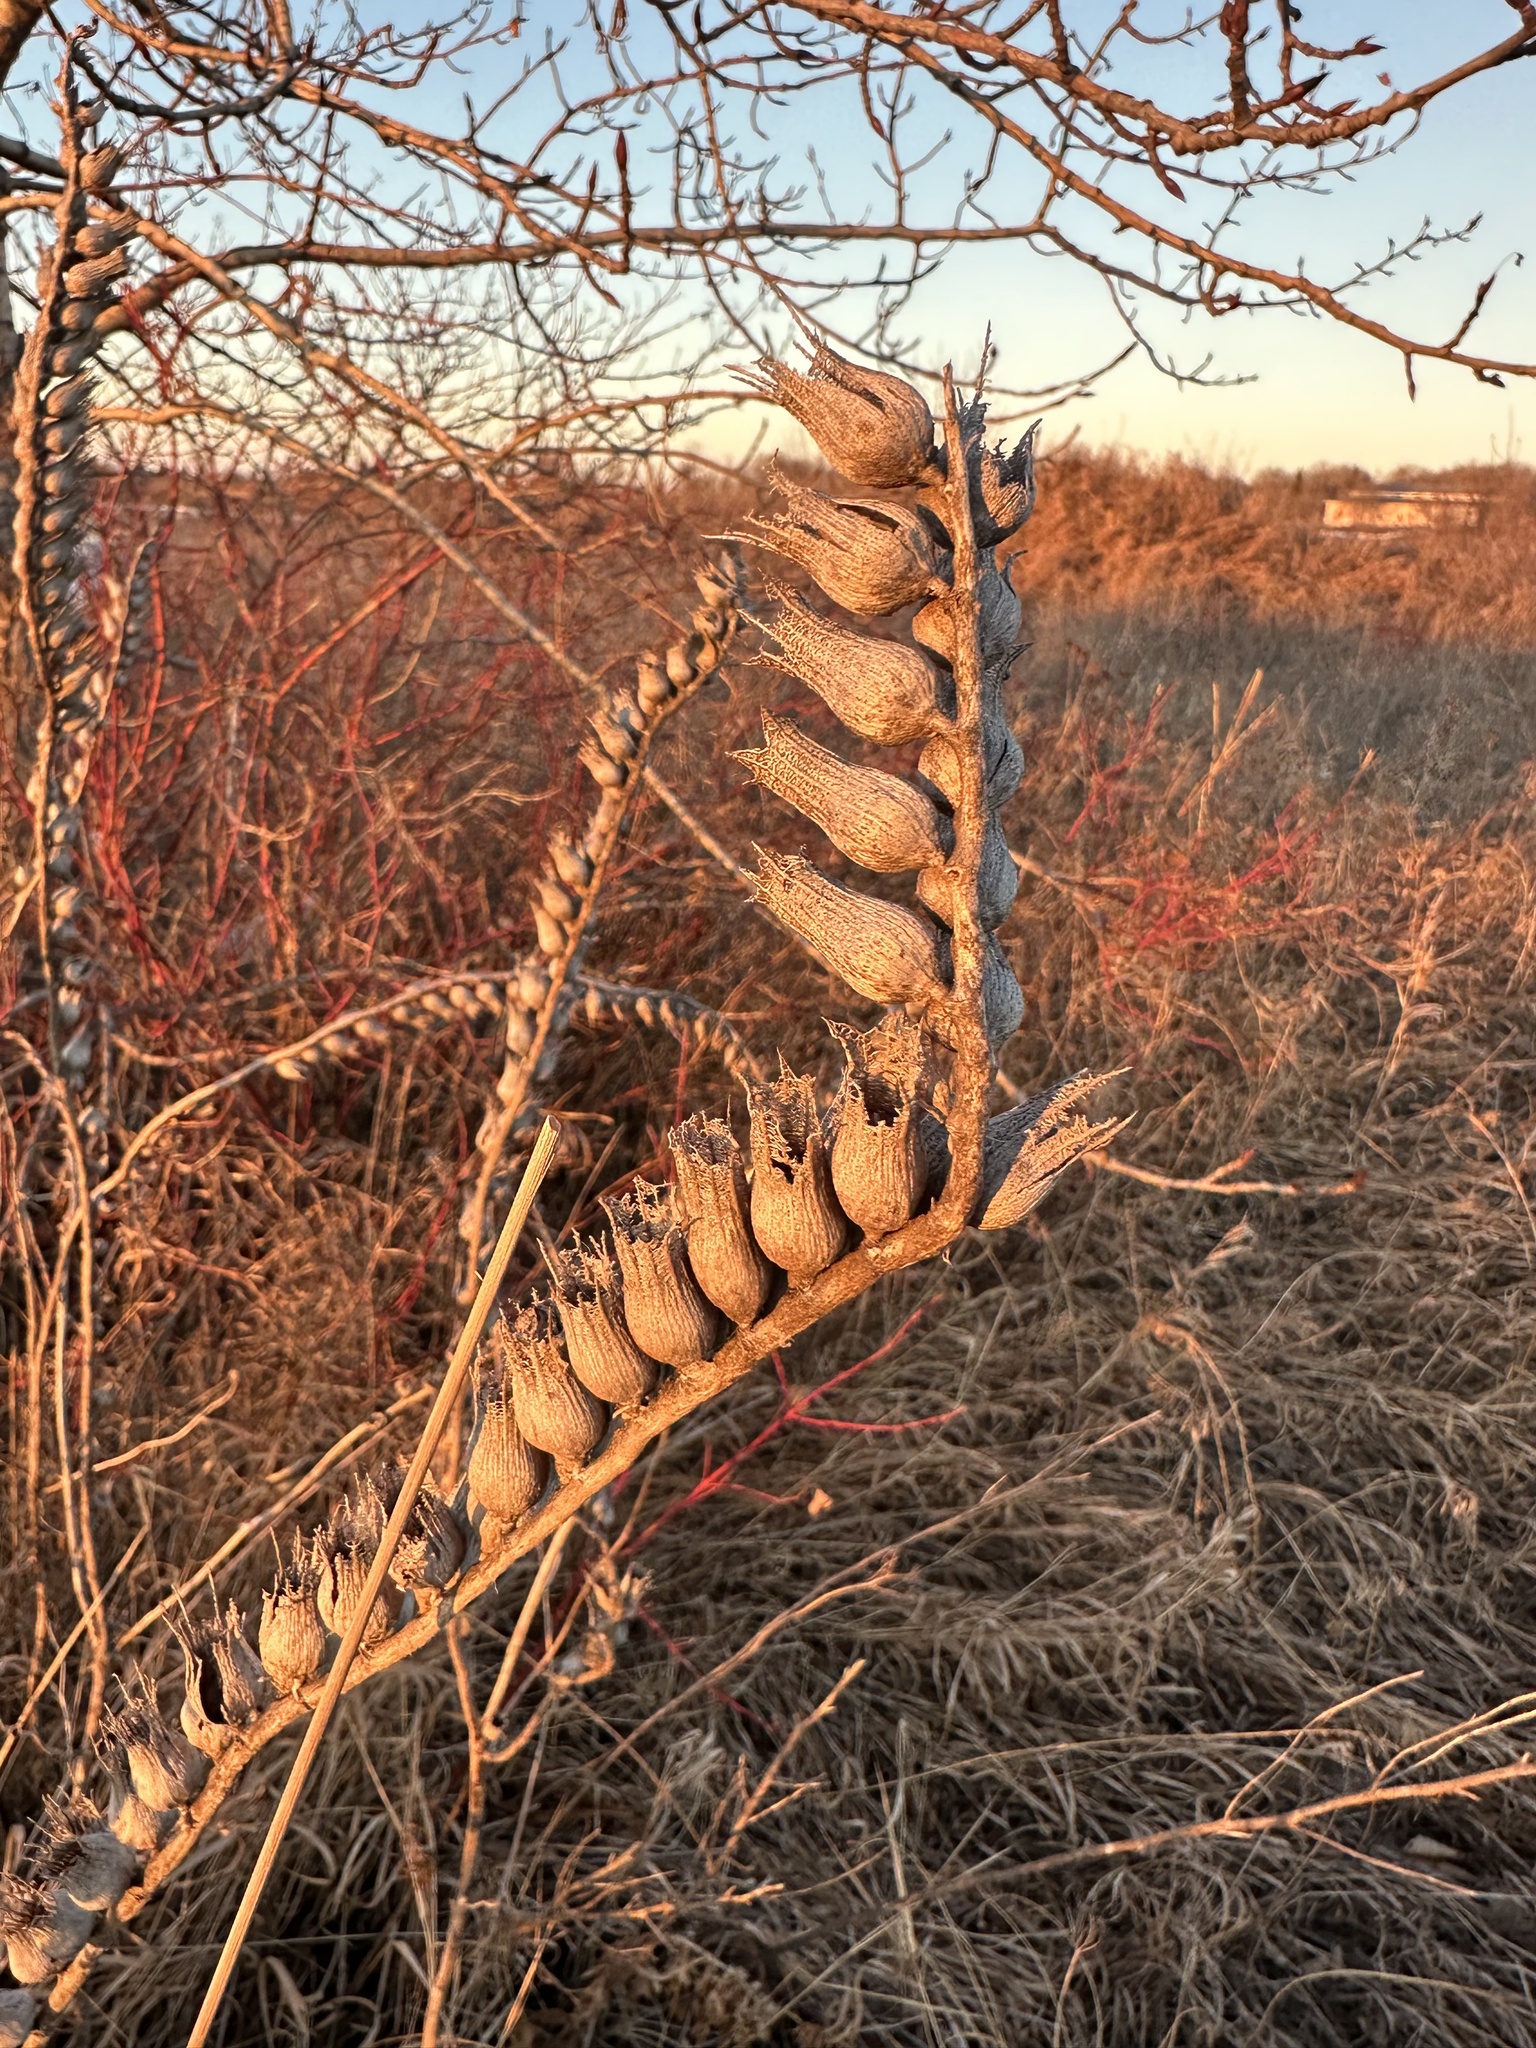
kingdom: Plantae
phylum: Tracheophyta
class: Magnoliopsida
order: Solanales
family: Solanaceae
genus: Hyoscyamus
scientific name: Hyoscyamus niger
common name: Henbane
